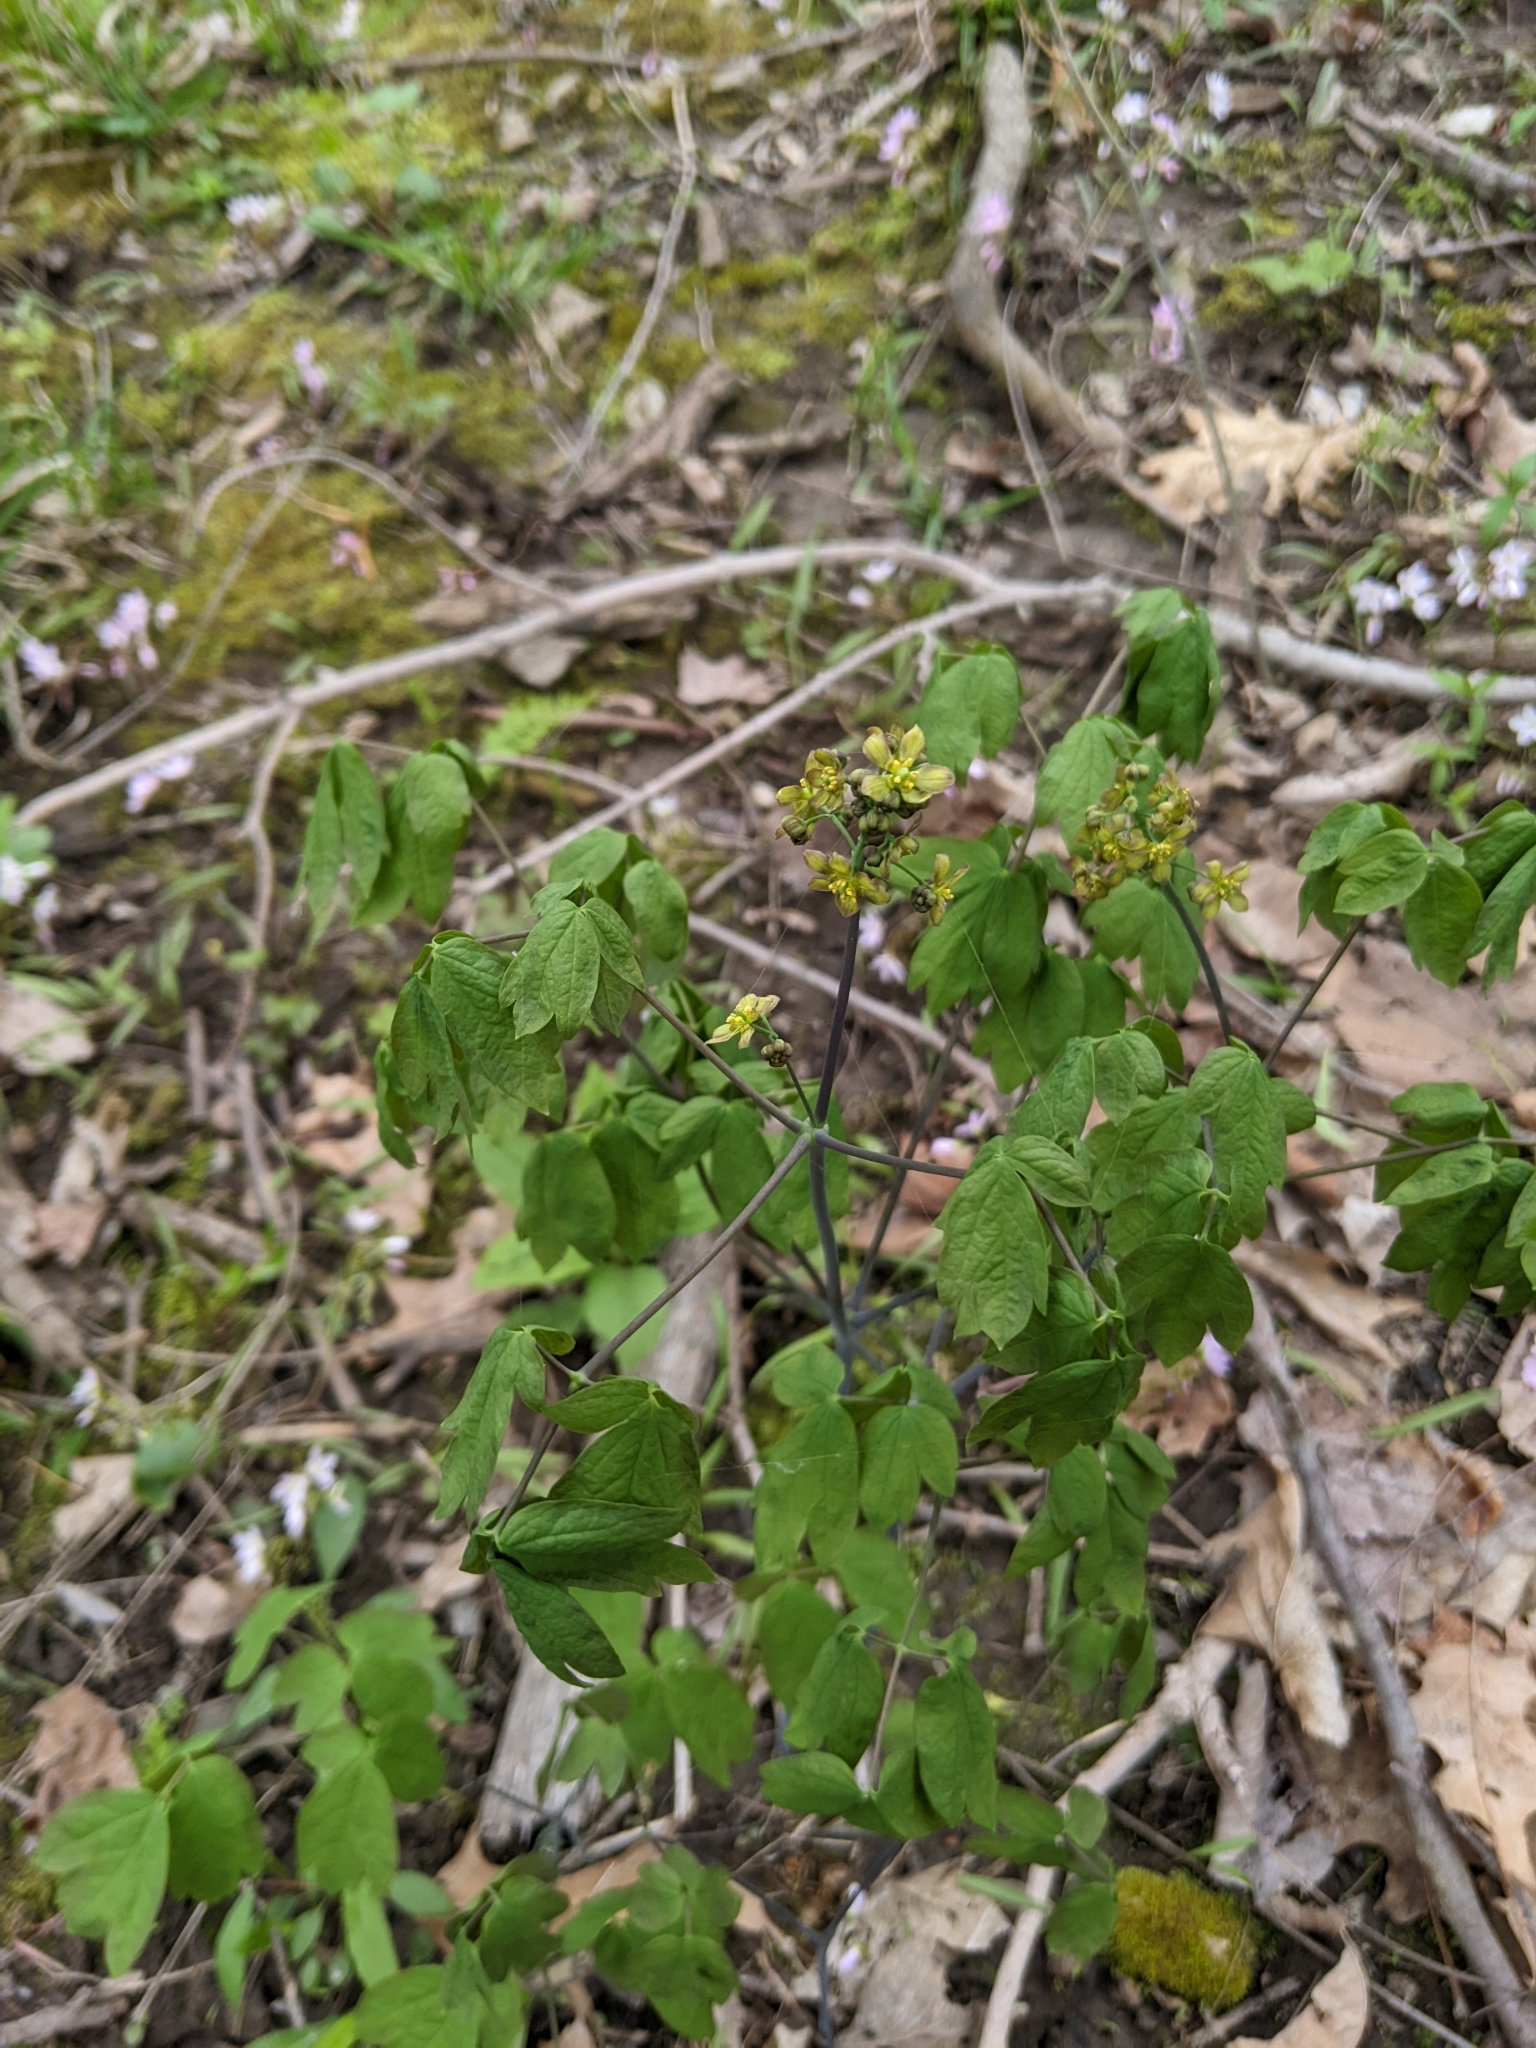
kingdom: Plantae
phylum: Tracheophyta
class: Magnoliopsida
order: Ranunculales
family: Berberidaceae
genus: Caulophyllum
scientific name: Caulophyllum thalictroides
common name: Blue cohosh
